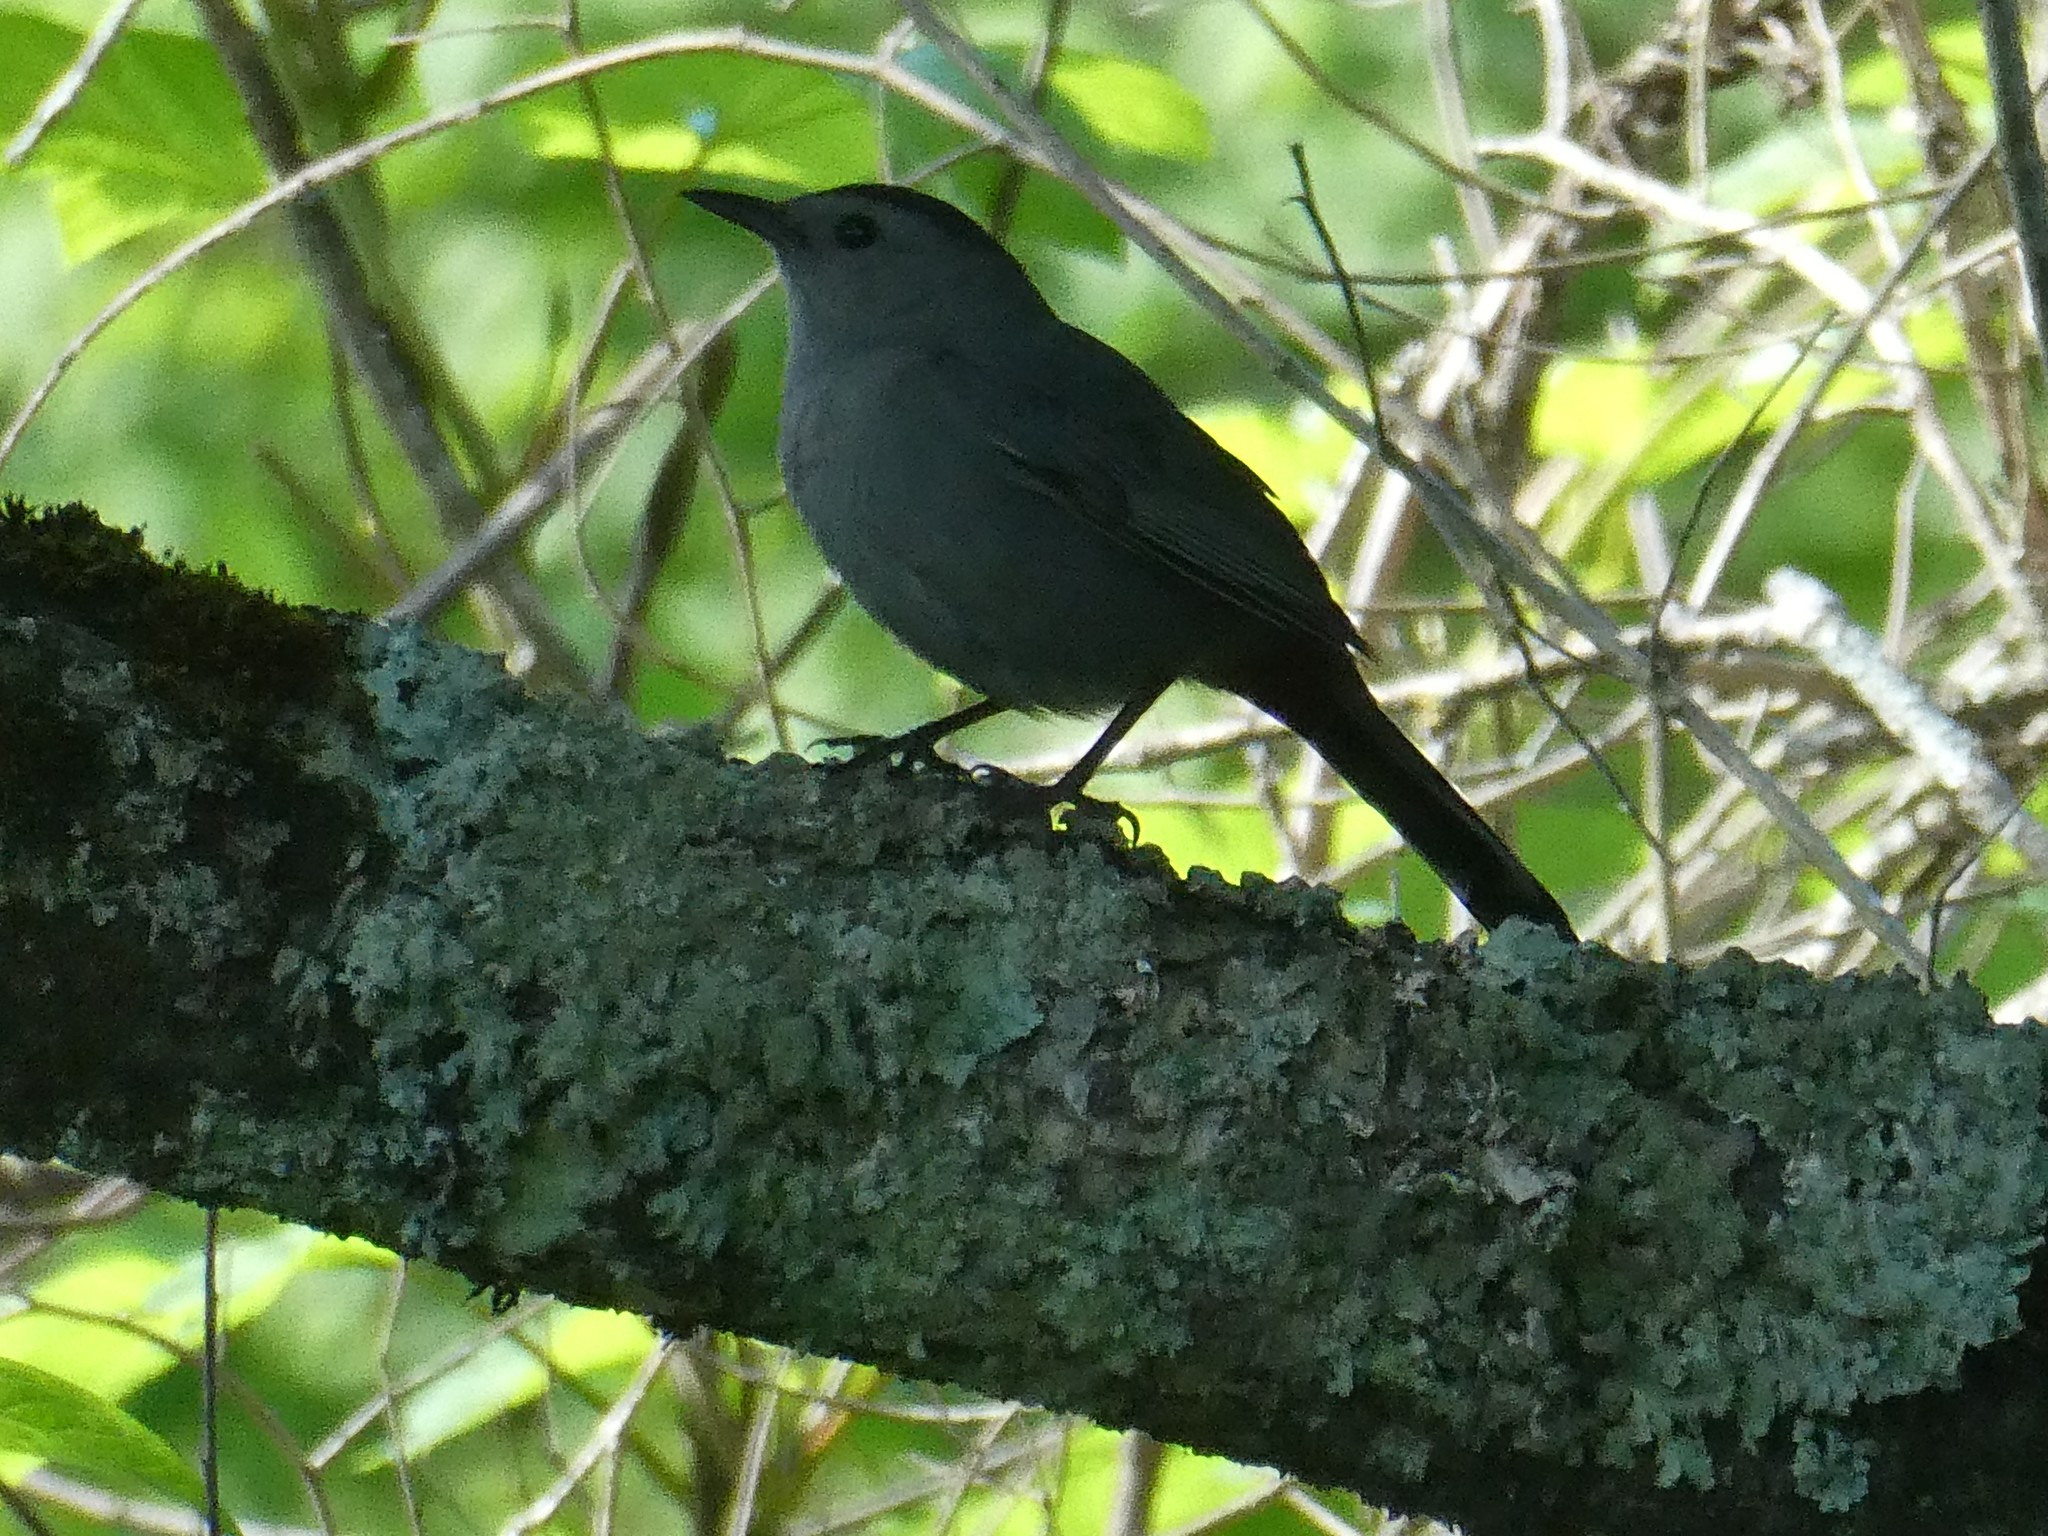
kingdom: Animalia
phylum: Chordata
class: Aves
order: Passeriformes
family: Mimidae
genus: Dumetella
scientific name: Dumetella carolinensis
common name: Gray catbird
